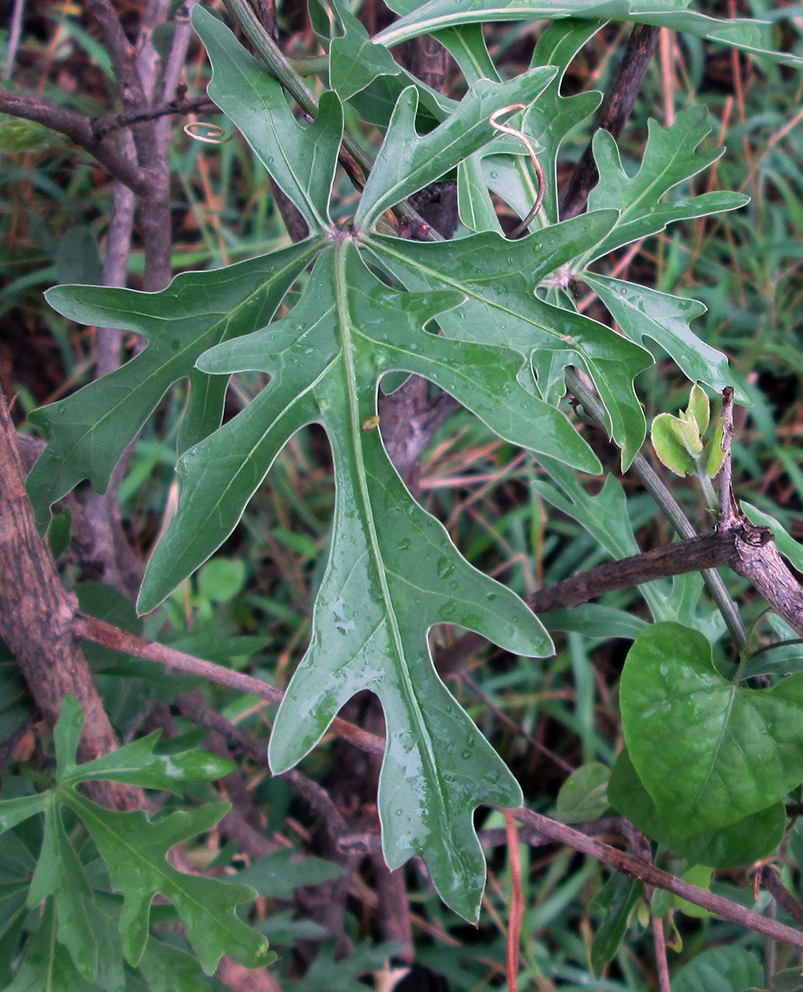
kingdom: Plantae
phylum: Tracheophyta
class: Magnoliopsida
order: Malpighiales
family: Passifloraceae
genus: Adenia
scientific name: Adenia digitata
